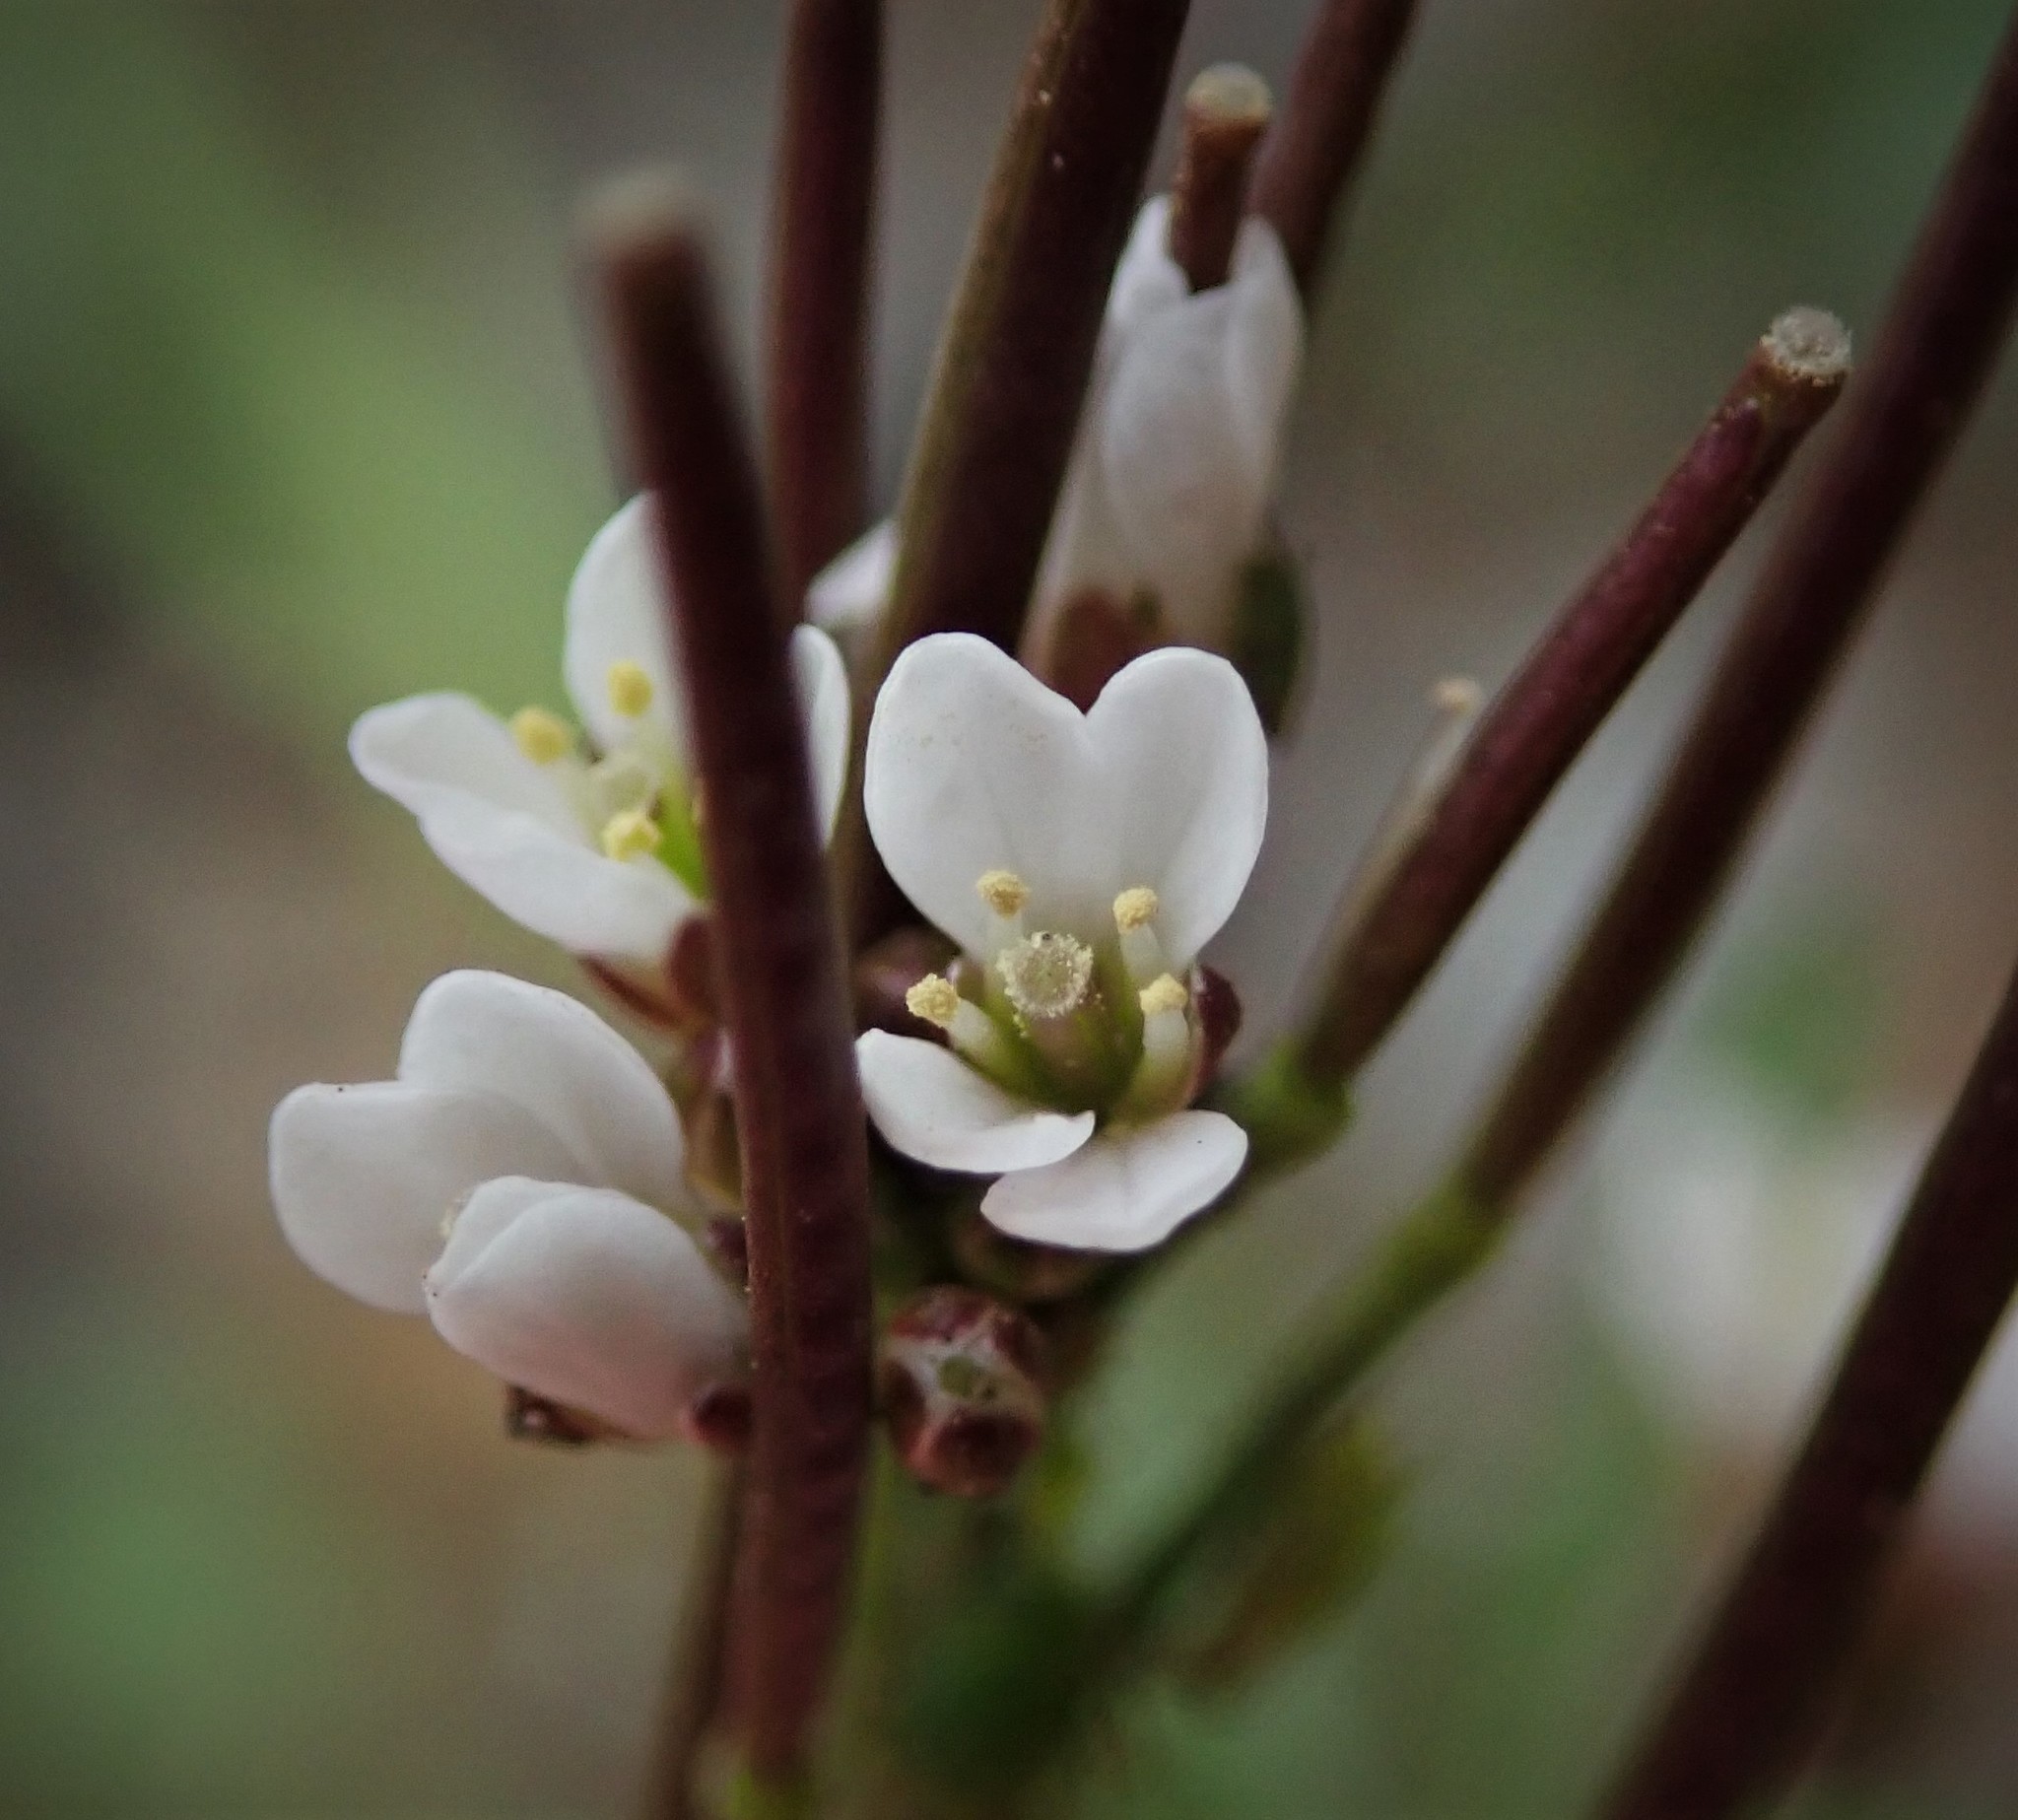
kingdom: Plantae
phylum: Tracheophyta
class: Magnoliopsida
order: Brassicales
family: Brassicaceae
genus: Cardamine
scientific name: Cardamine hirsuta
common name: Hairy bittercress
